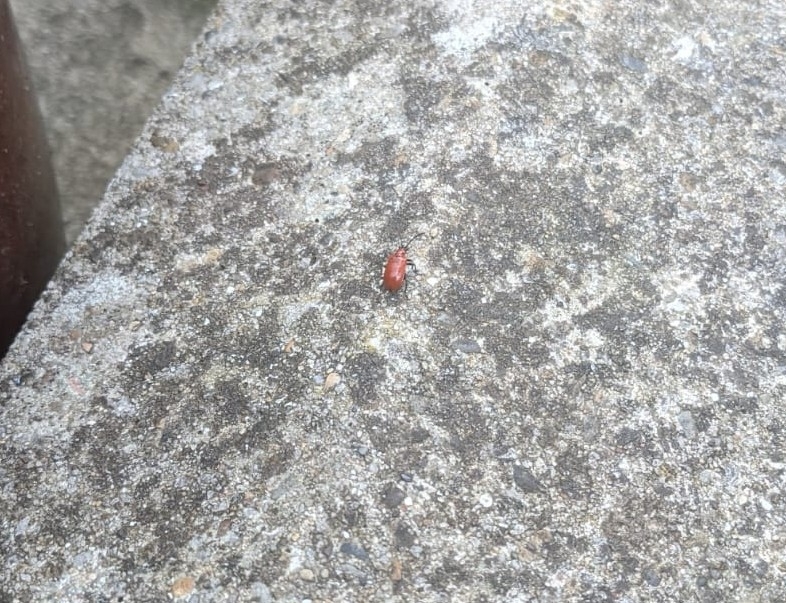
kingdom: Animalia
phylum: Arthropoda
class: Insecta
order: Coleoptera
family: Chrysomelidae
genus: Lilioceris
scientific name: Lilioceris lilii
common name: Lily beetle
